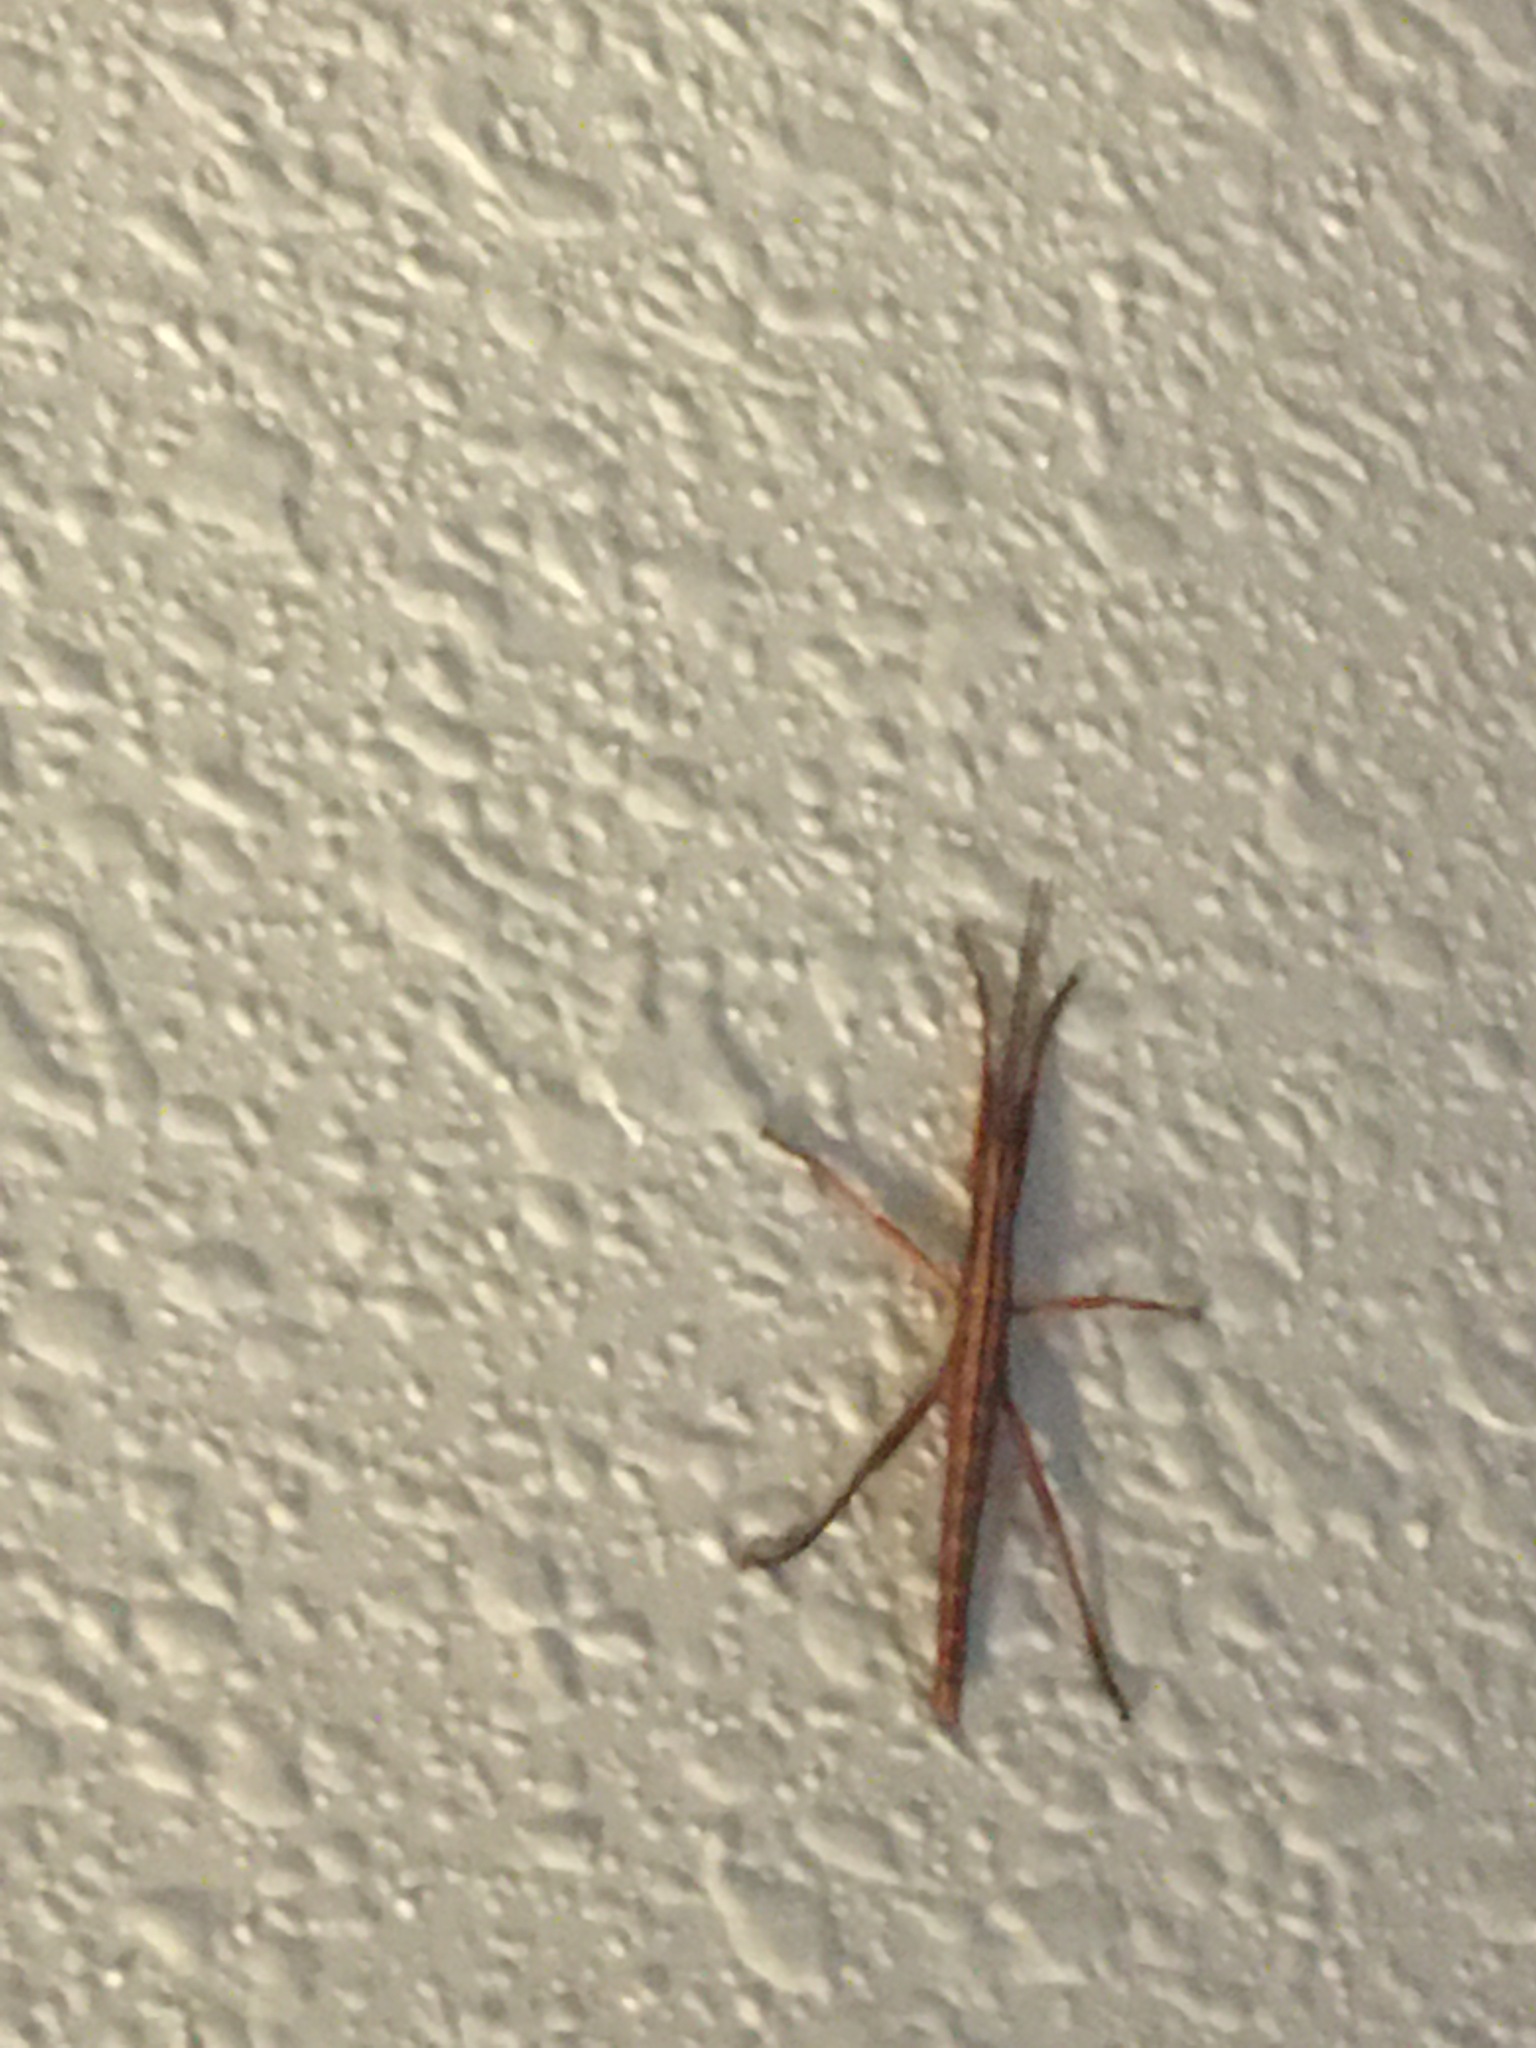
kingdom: Animalia
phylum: Arthropoda
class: Insecta
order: Phasmida
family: Pseudophasmatidae
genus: Anisomorpha
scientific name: Anisomorpha buprestoides
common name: Florida stick insect
